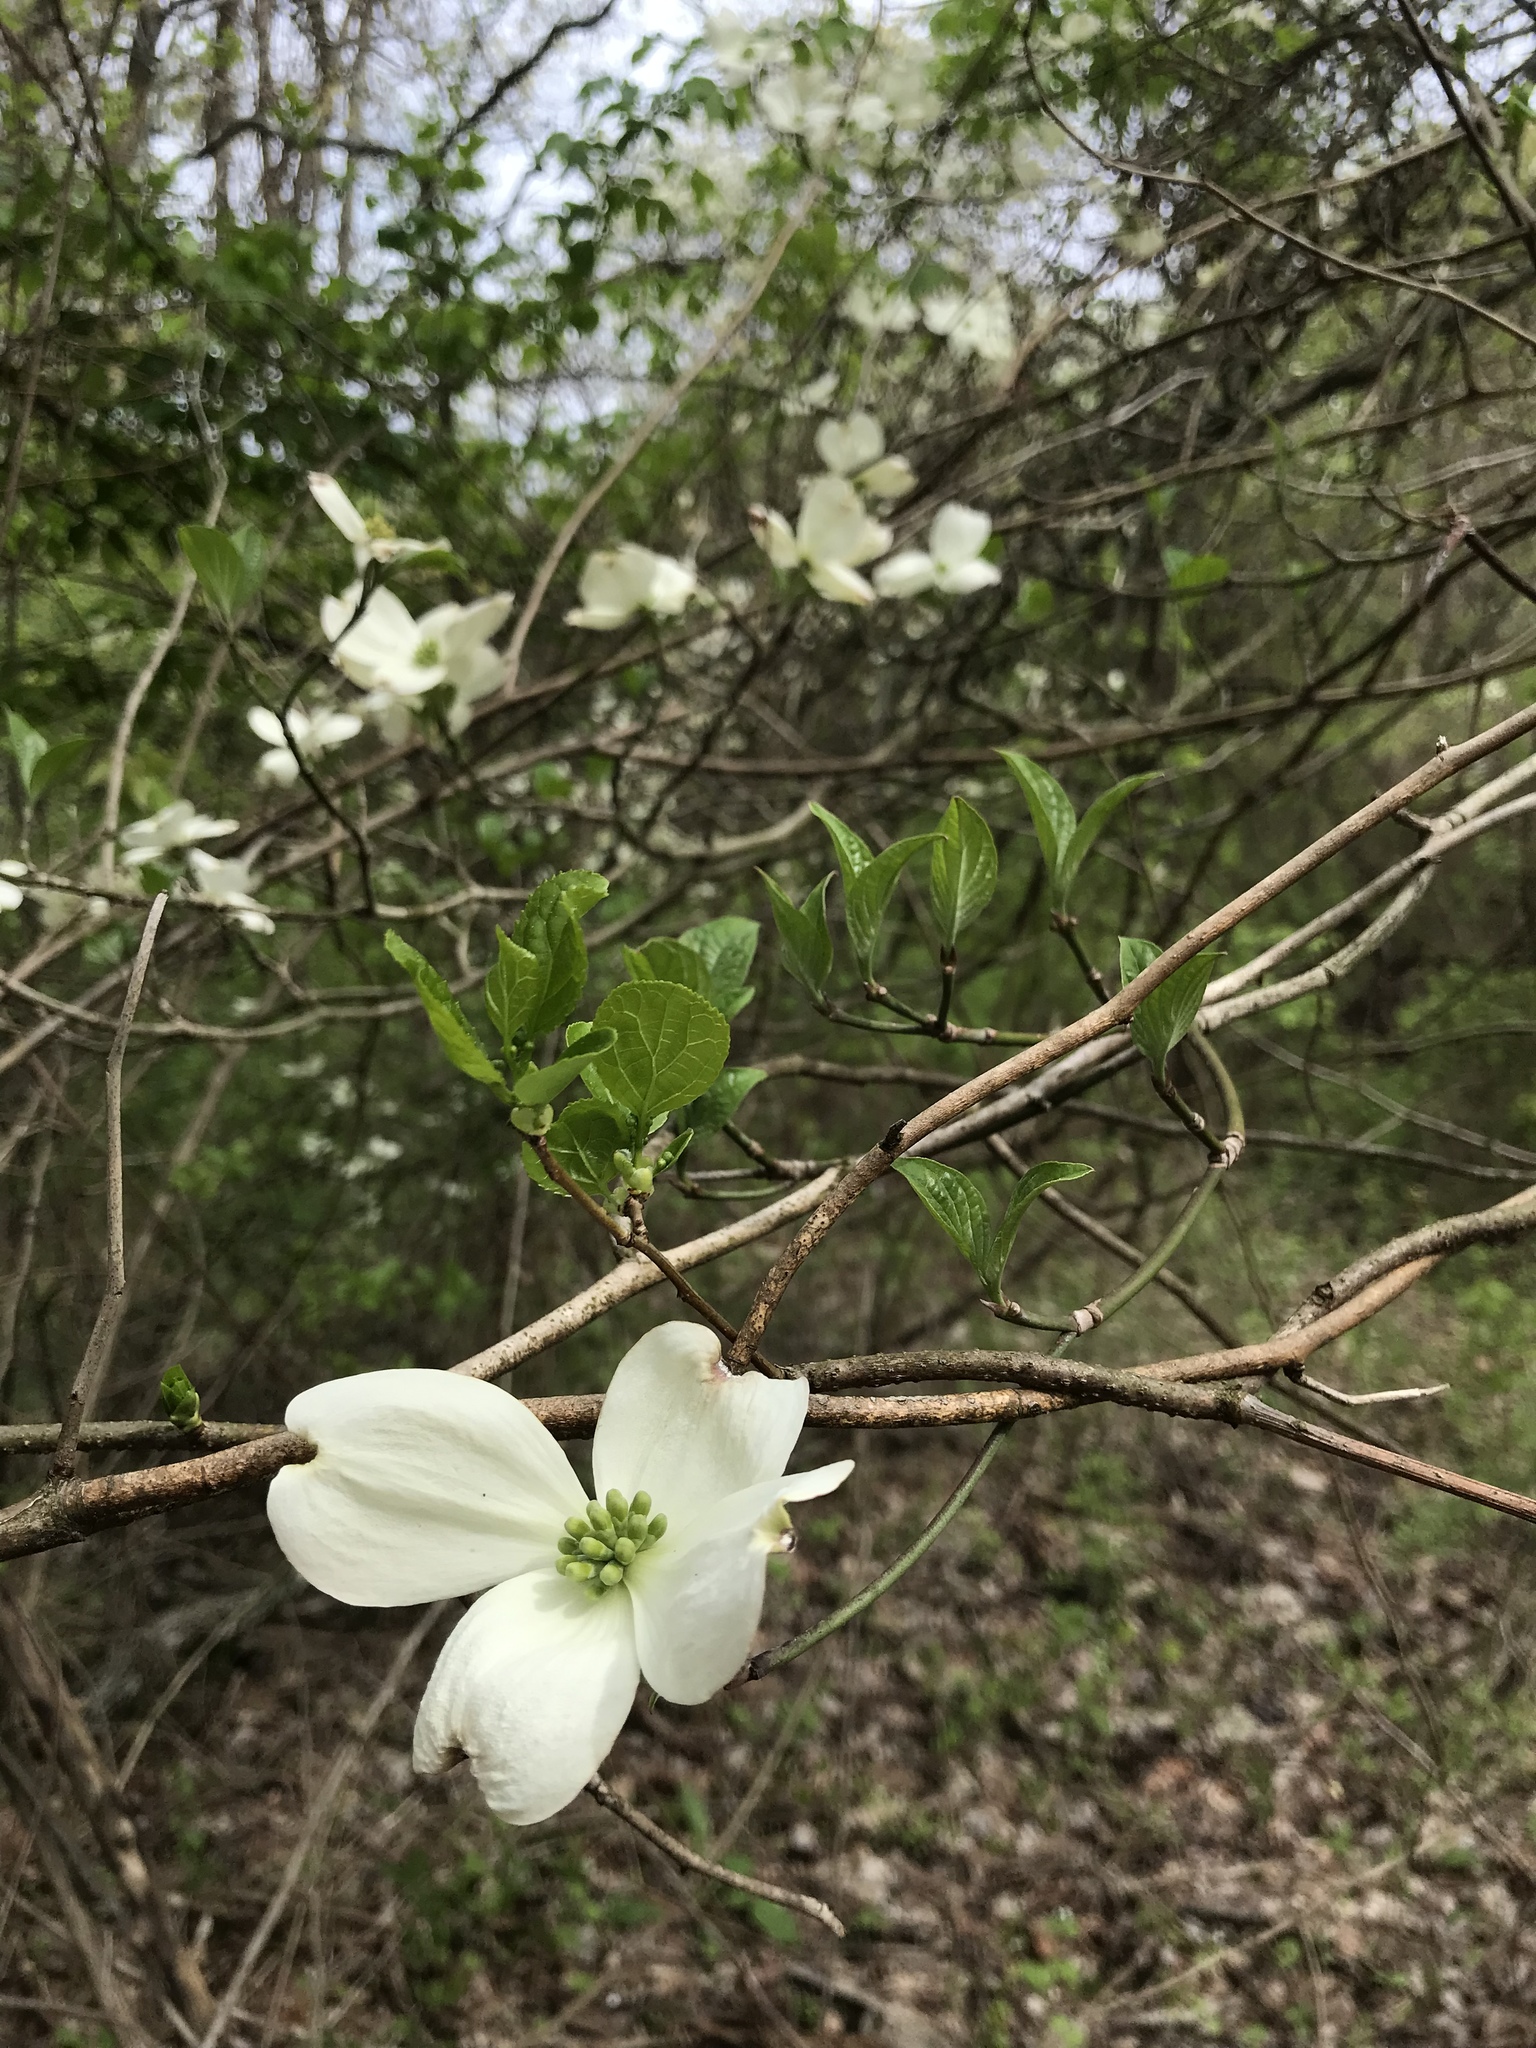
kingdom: Plantae
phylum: Tracheophyta
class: Magnoliopsida
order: Cornales
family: Cornaceae
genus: Cornus
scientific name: Cornus florida
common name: Flowering dogwood
